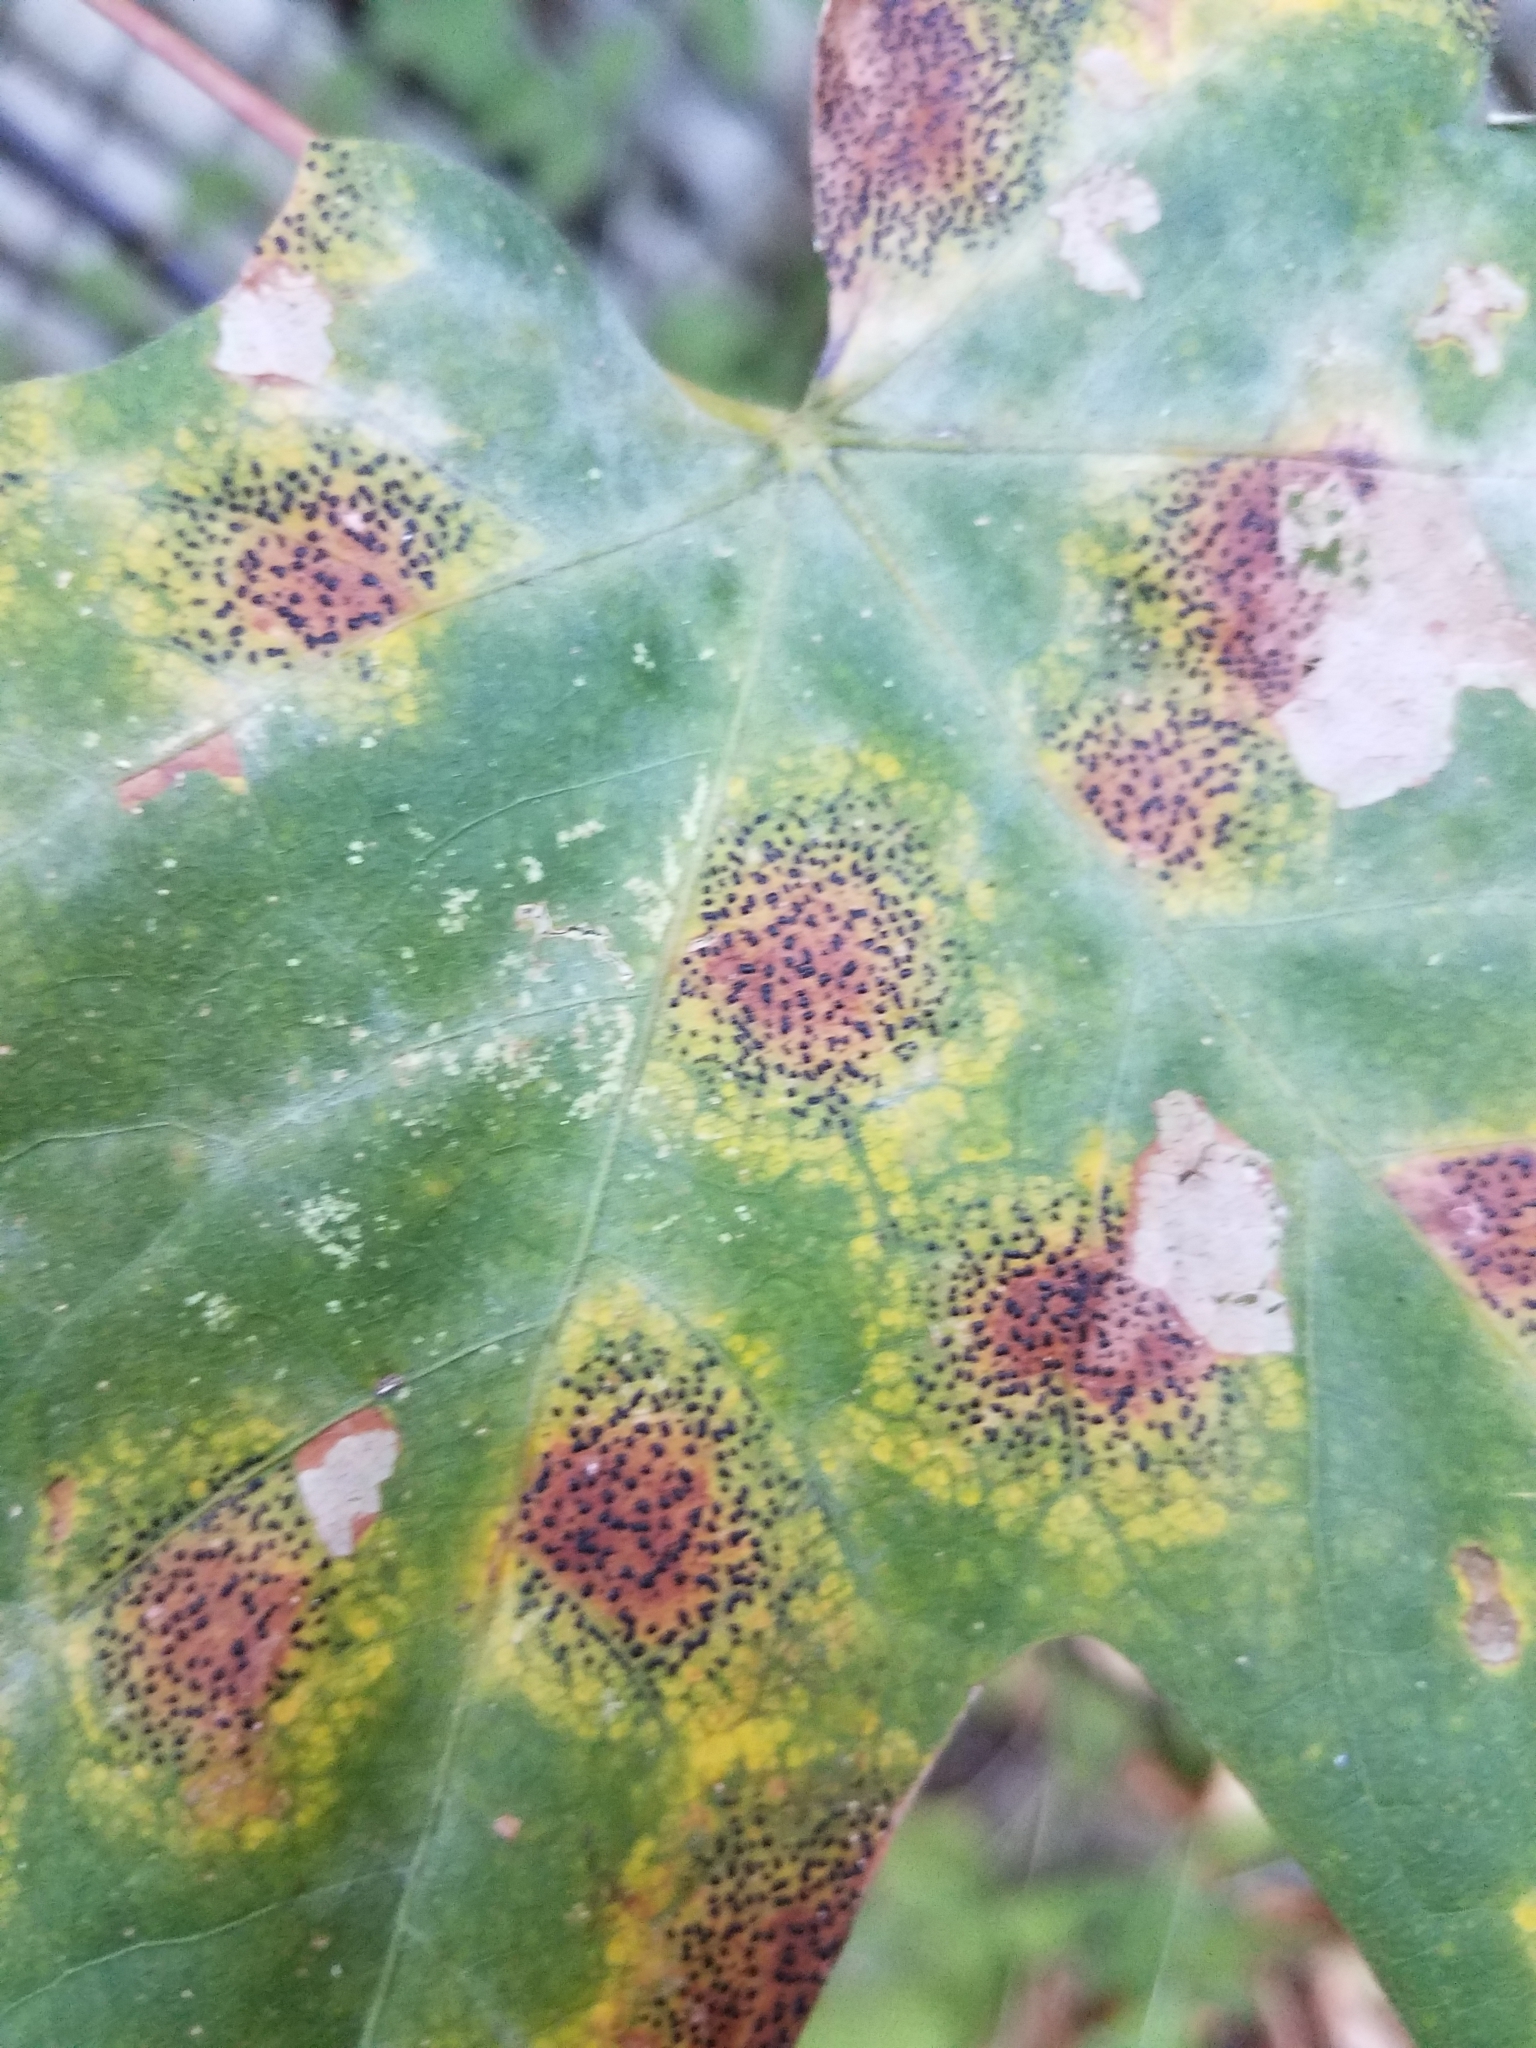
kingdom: Fungi
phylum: Ascomycota
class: Leotiomycetes
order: Rhytismatales
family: Rhytismataceae
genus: Rhytisma
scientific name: Rhytisma punctatum
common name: Speckled tar spot
